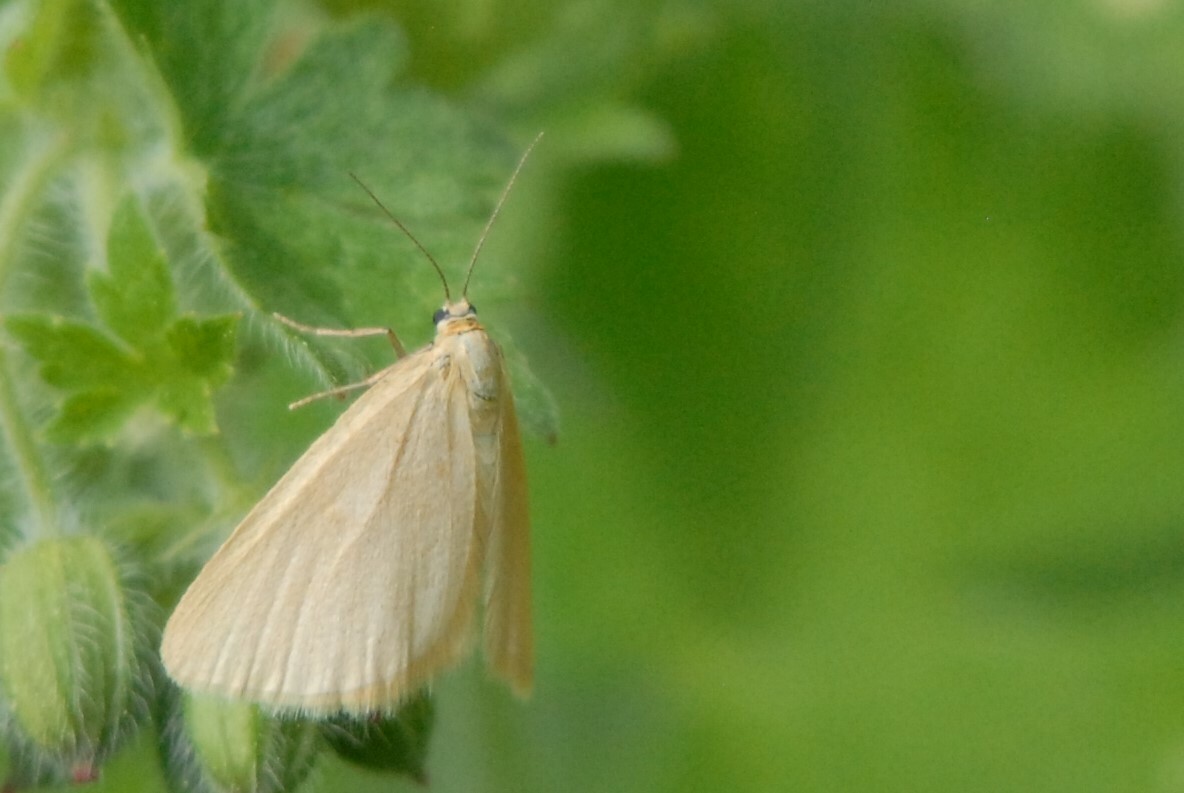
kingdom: Animalia
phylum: Arthropoda
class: Insecta
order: Lepidoptera
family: Geometridae
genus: Minoa
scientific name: Minoa murinata
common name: Drab looper
